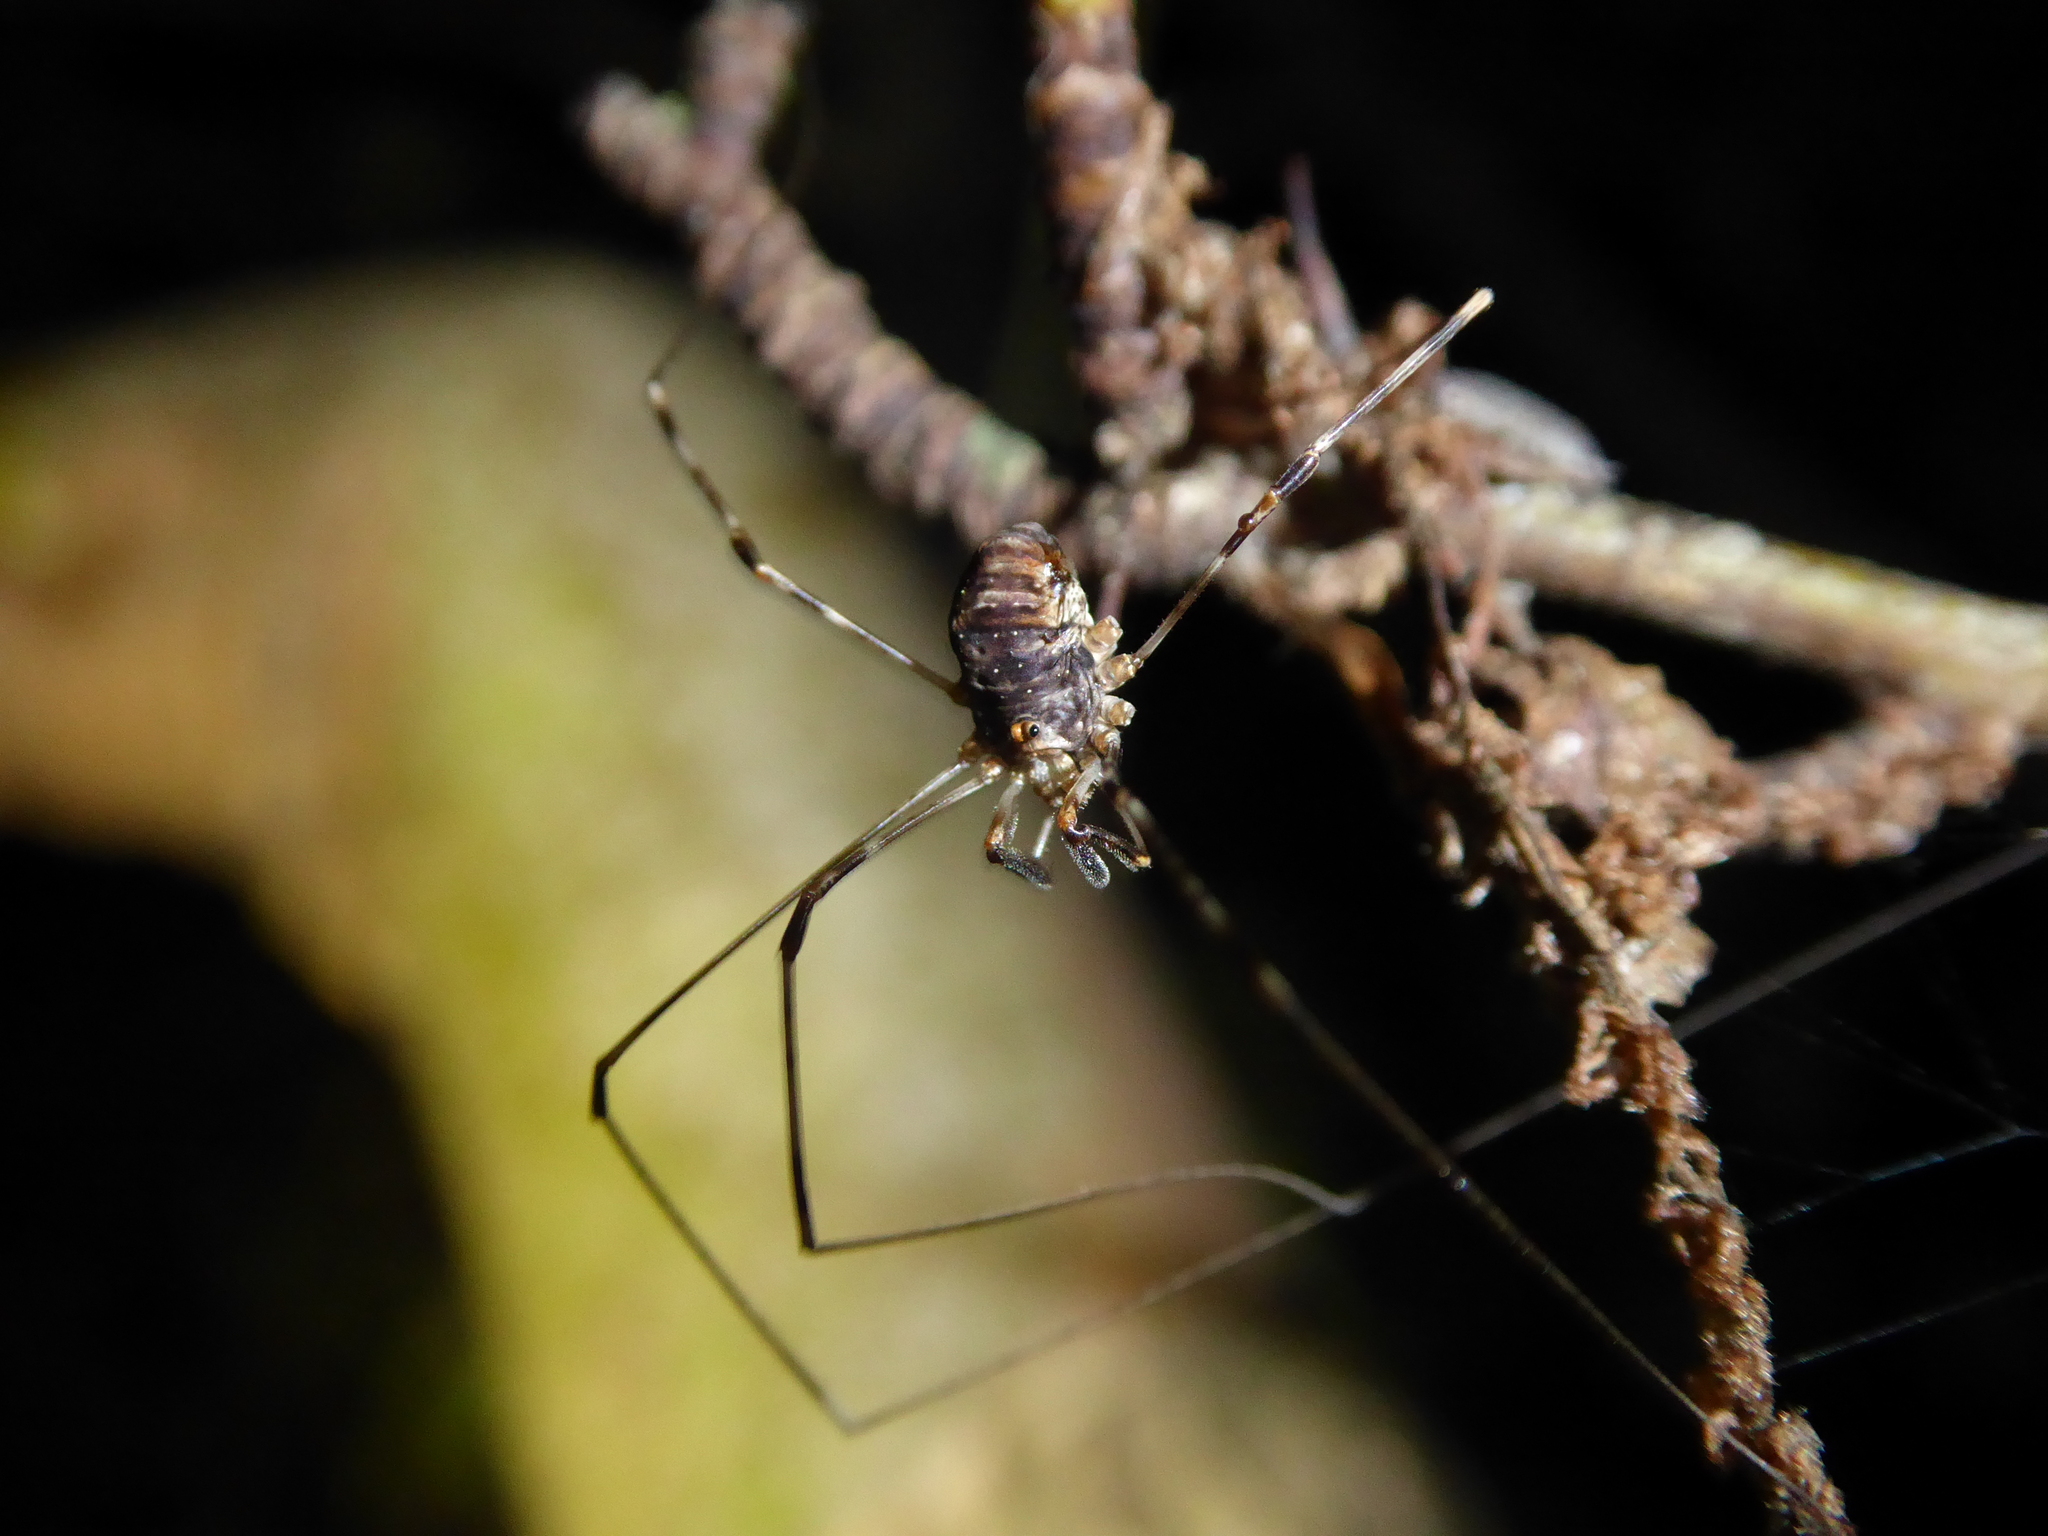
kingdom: Animalia
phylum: Arthropoda
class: Arachnida
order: Opiliones
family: Phalangiidae
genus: Dicranopalpus
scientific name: Dicranopalpus
